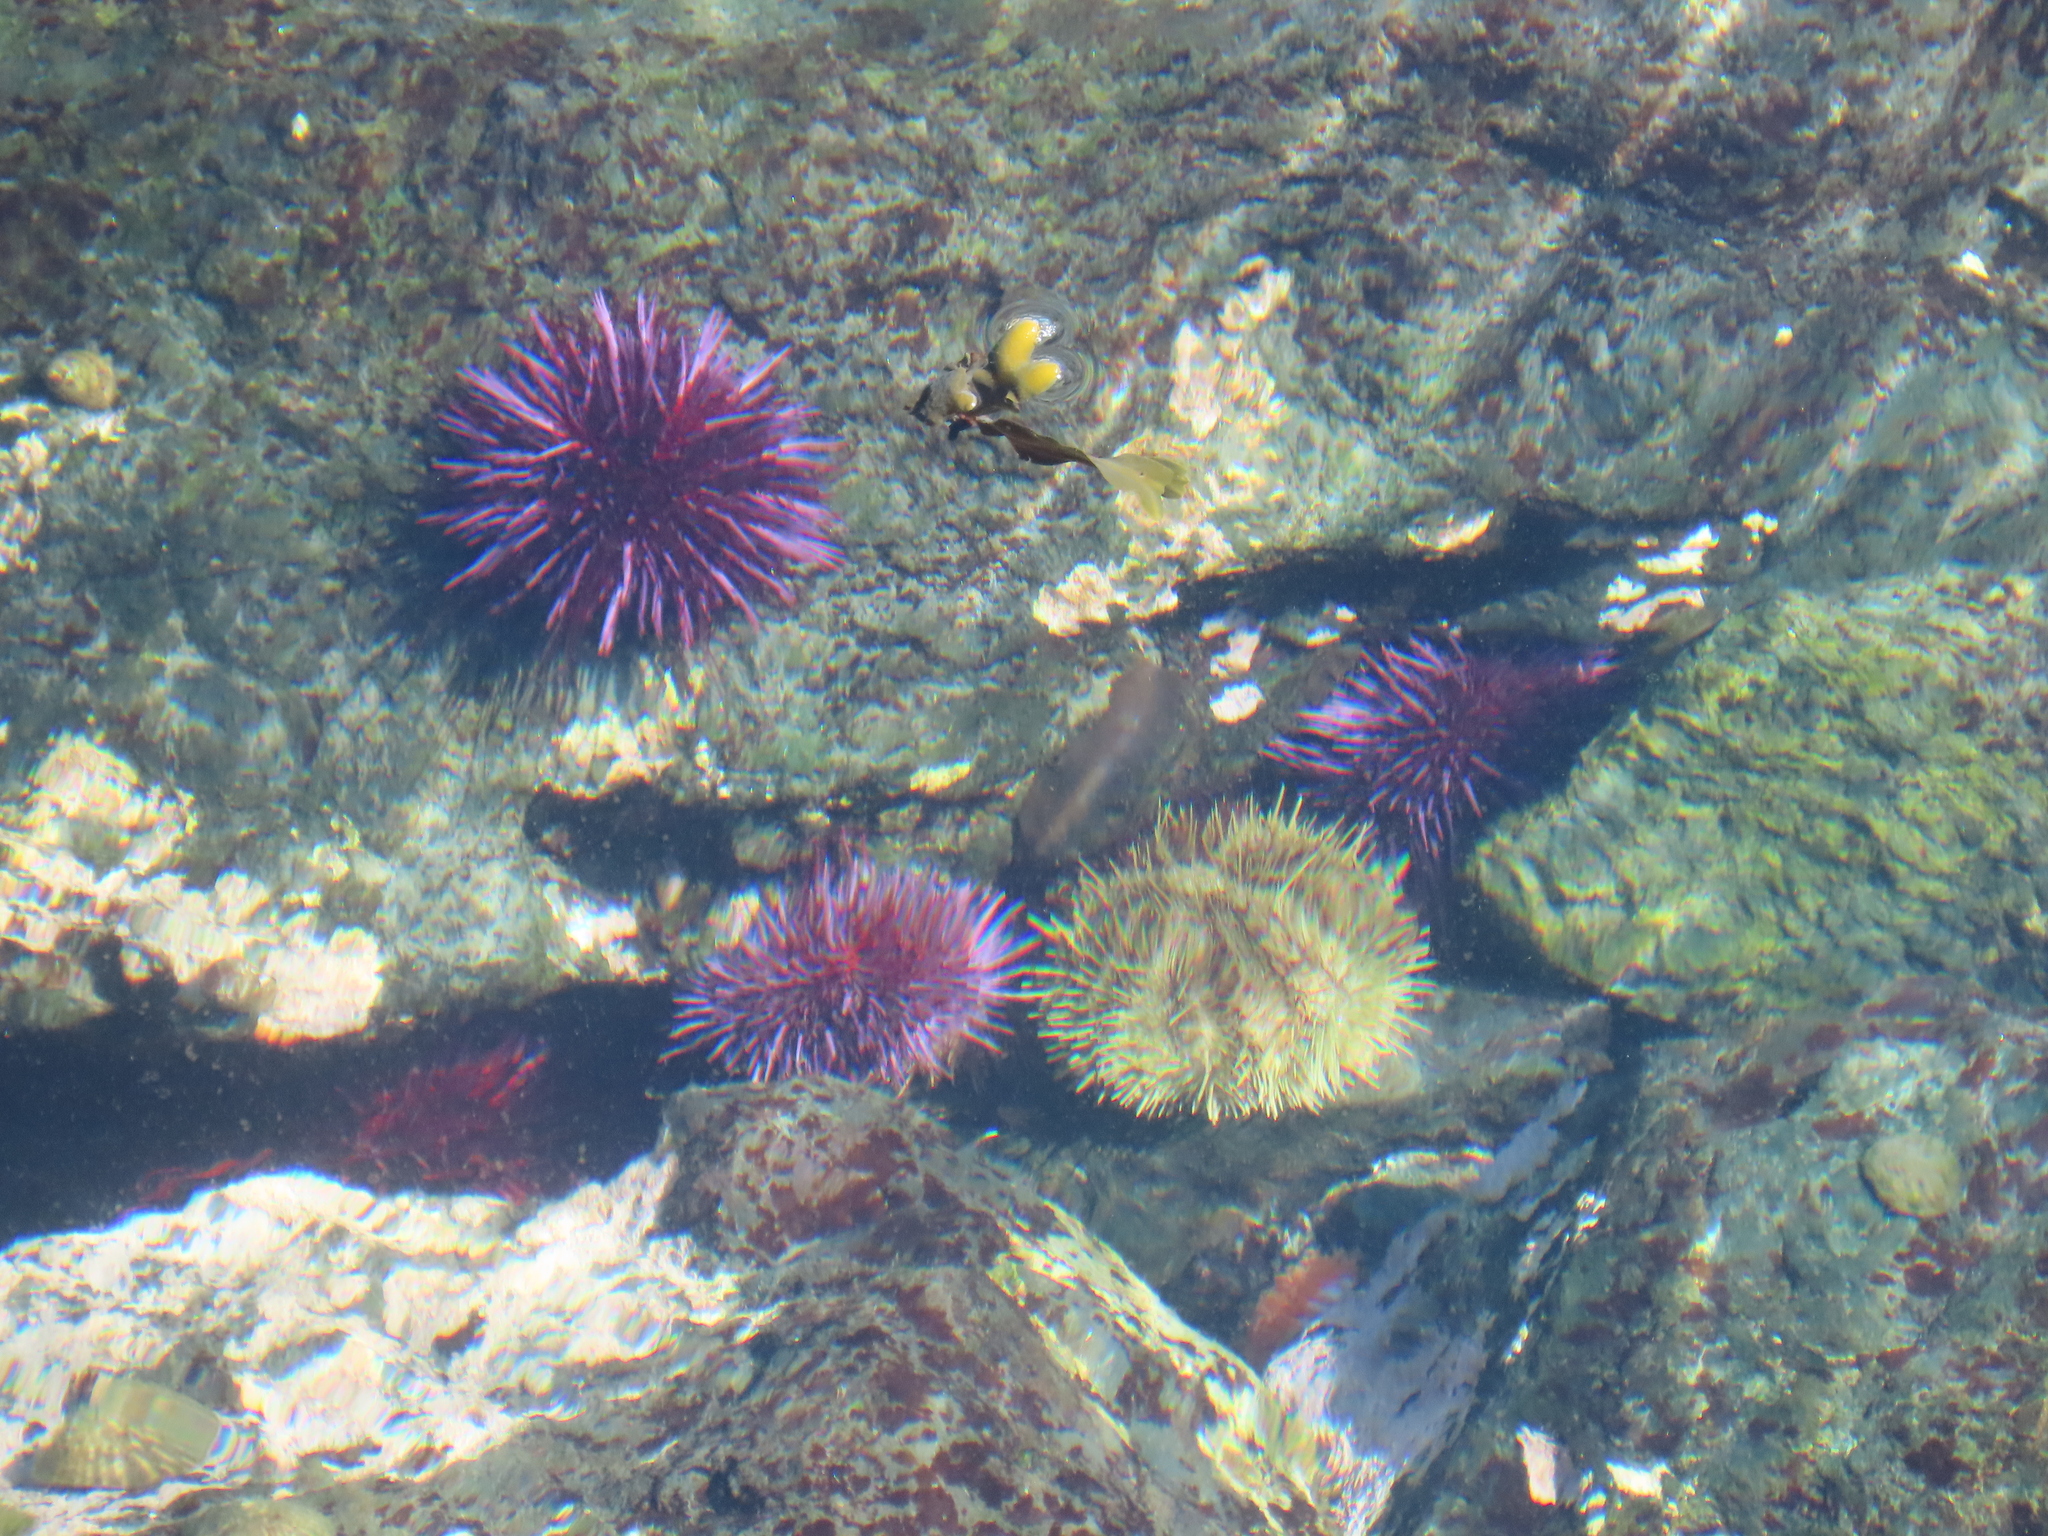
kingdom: Animalia
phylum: Echinodermata
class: Echinoidea
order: Camarodonta
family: Strongylocentrotidae
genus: Strongylocentrotus
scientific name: Strongylocentrotus purpuratus
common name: Purple sea urchin
